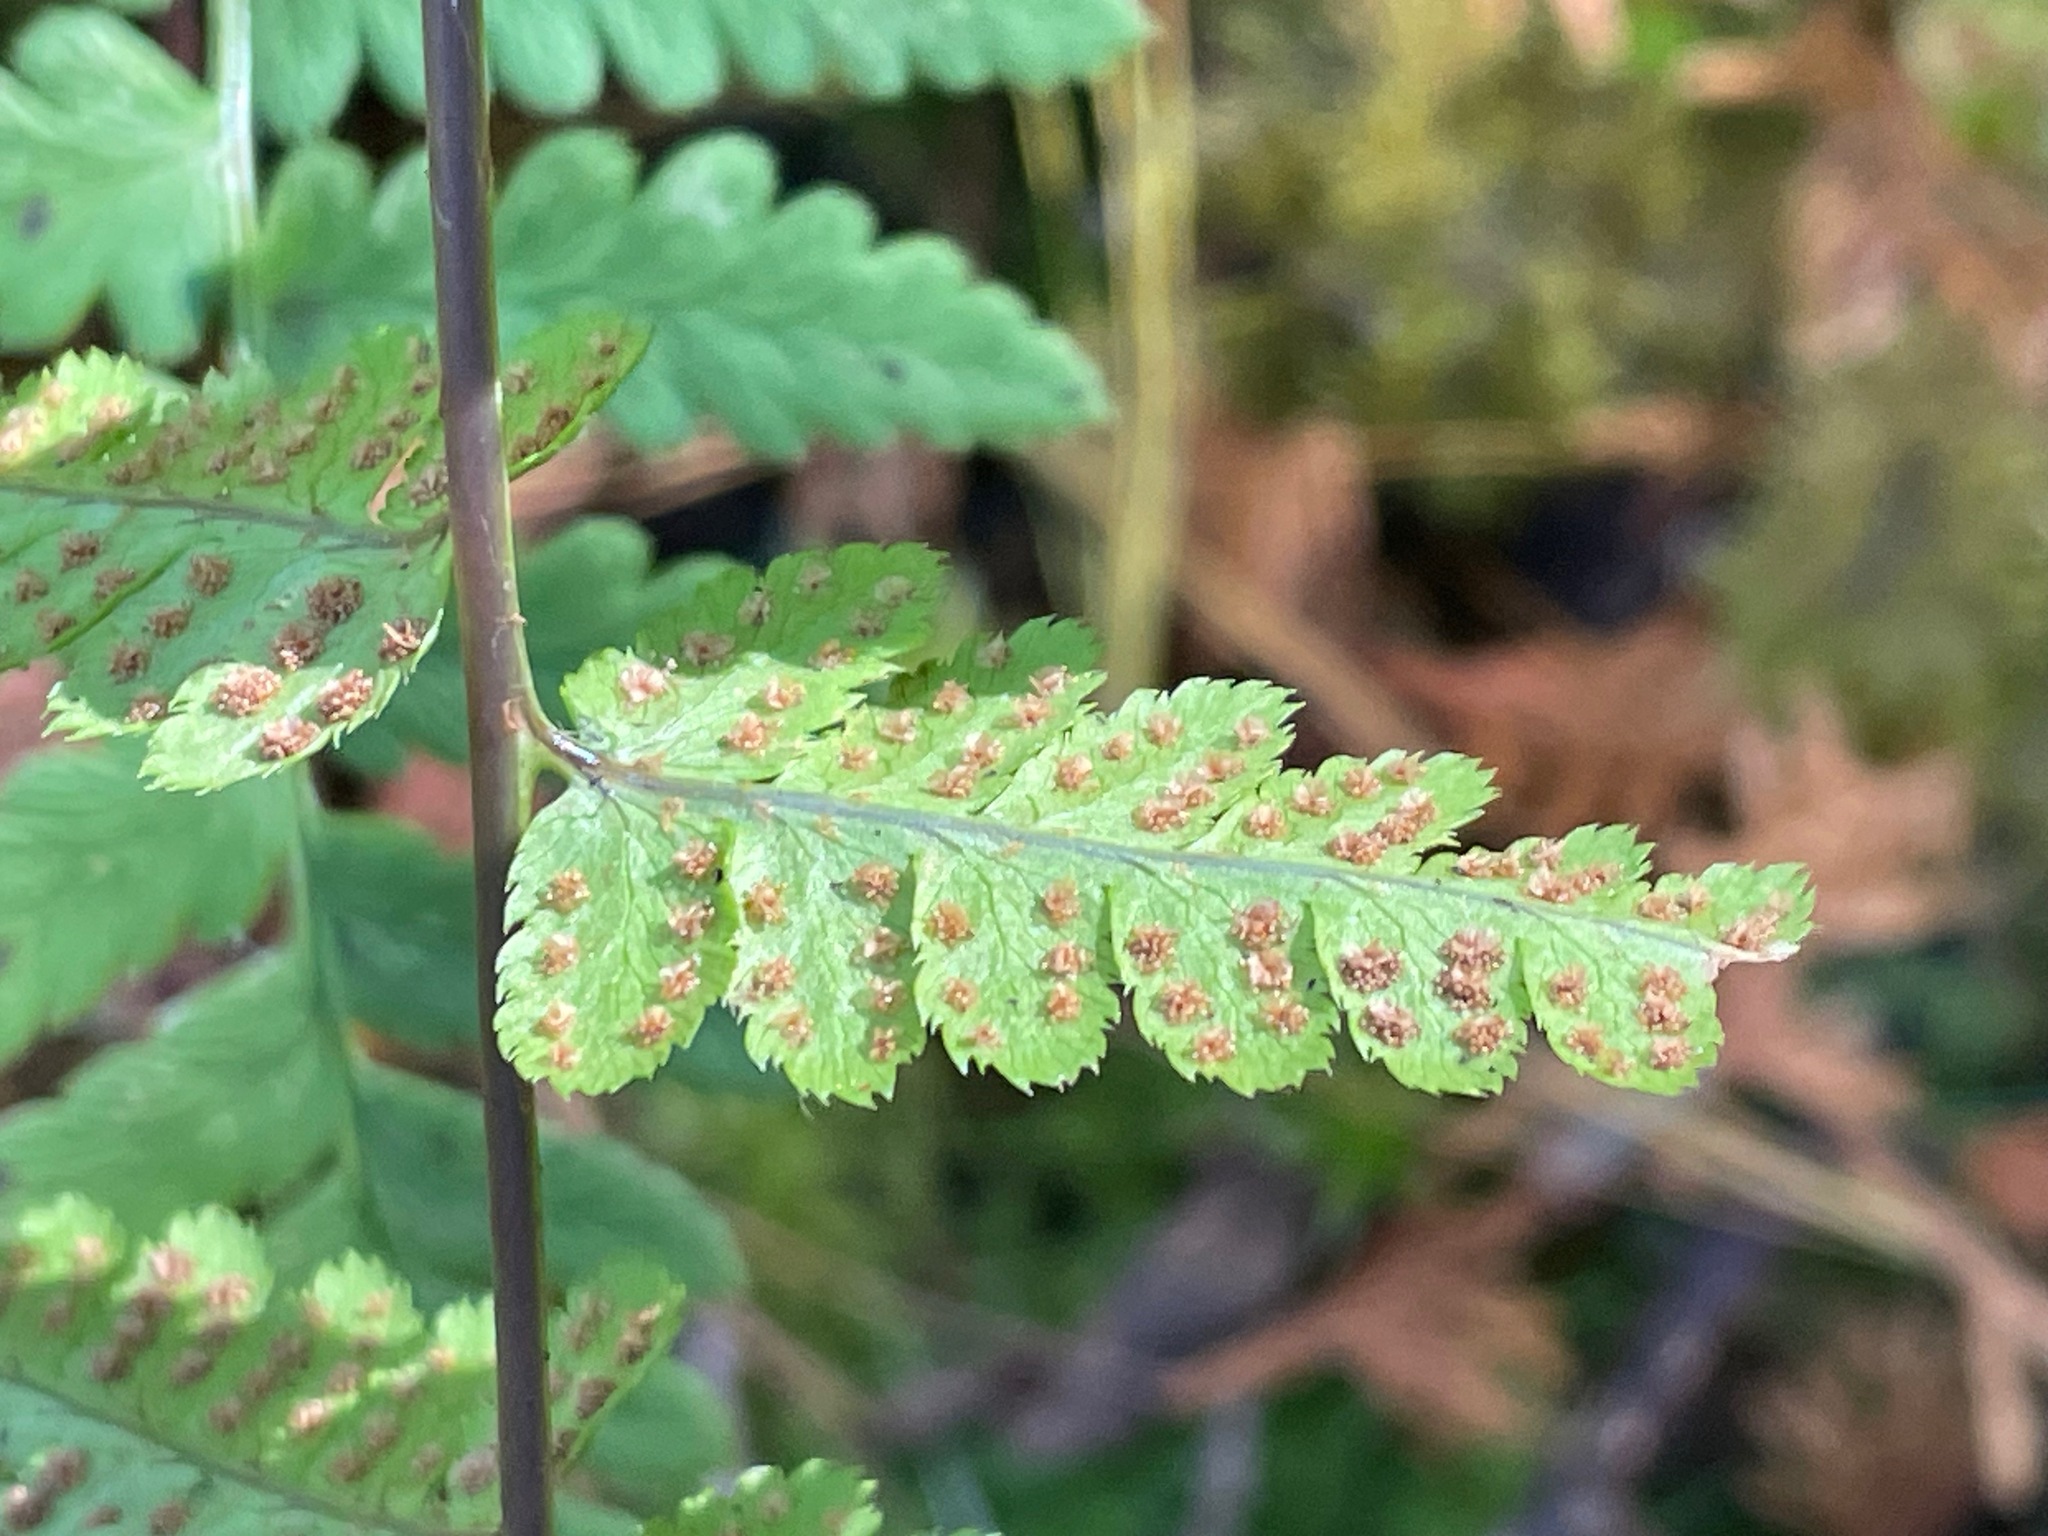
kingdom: Plantae
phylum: Tracheophyta
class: Polypodiopsida
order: Polypodiales
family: Dryopteridaceae
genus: Dryopteris
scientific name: Dryopteris cristata
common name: Crested wood fern
